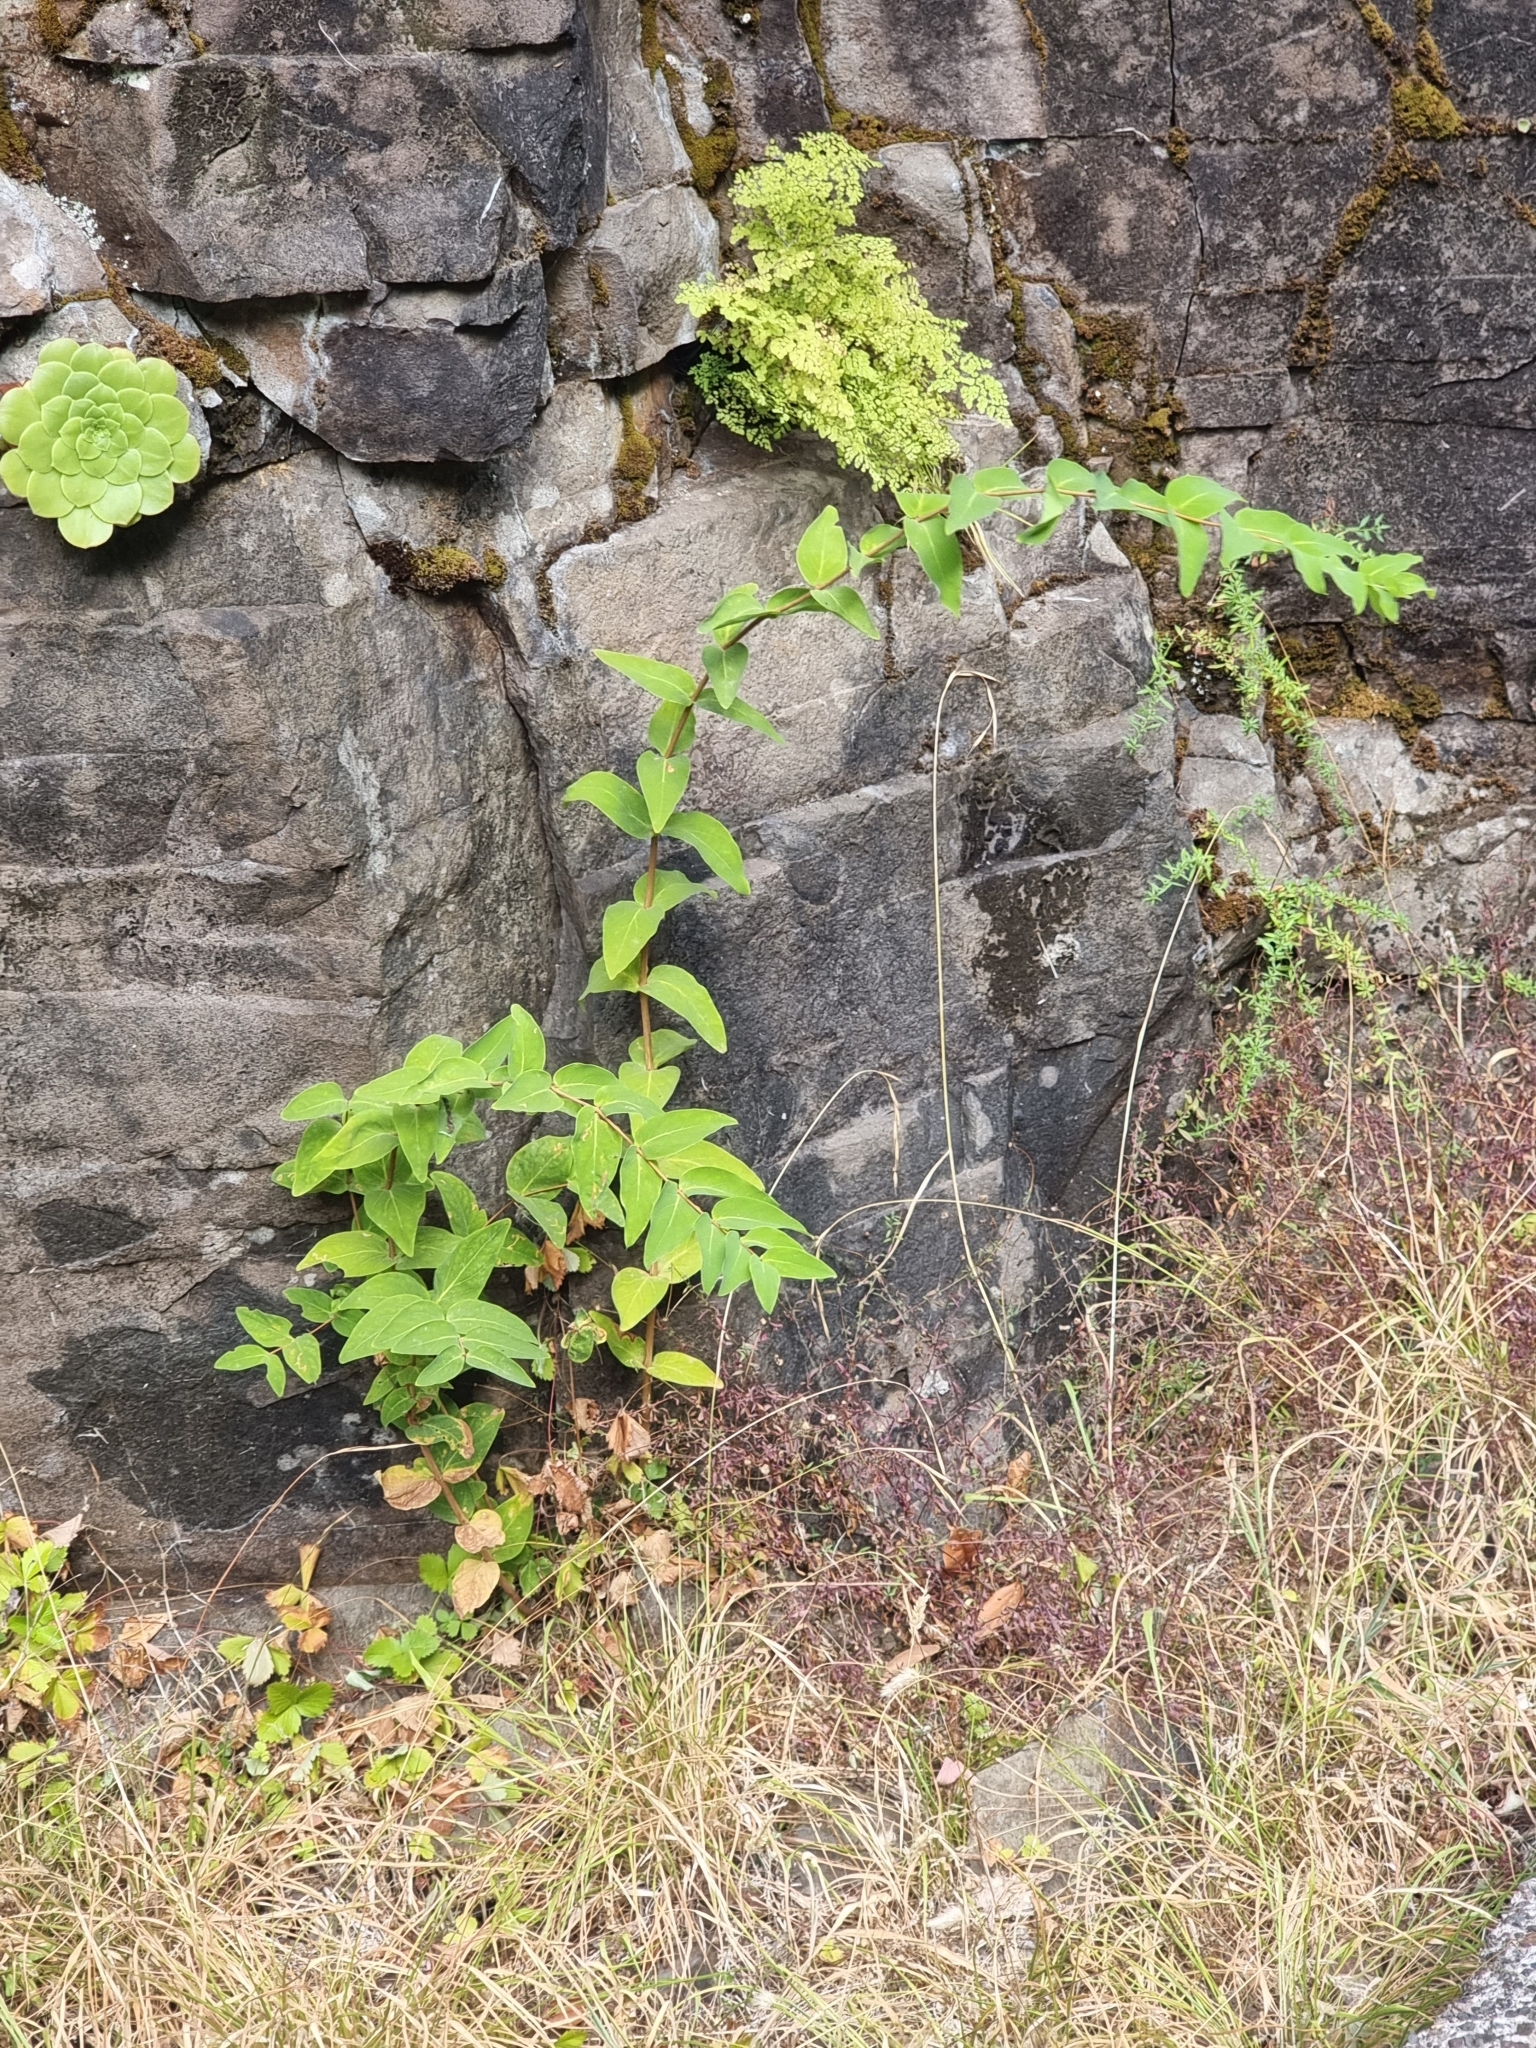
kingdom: Plantae
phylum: Tracheophyta
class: Magnoliopsida
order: Malpighiales
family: Hypericaceae
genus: Hypericum
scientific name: Hypericum grandifolium
